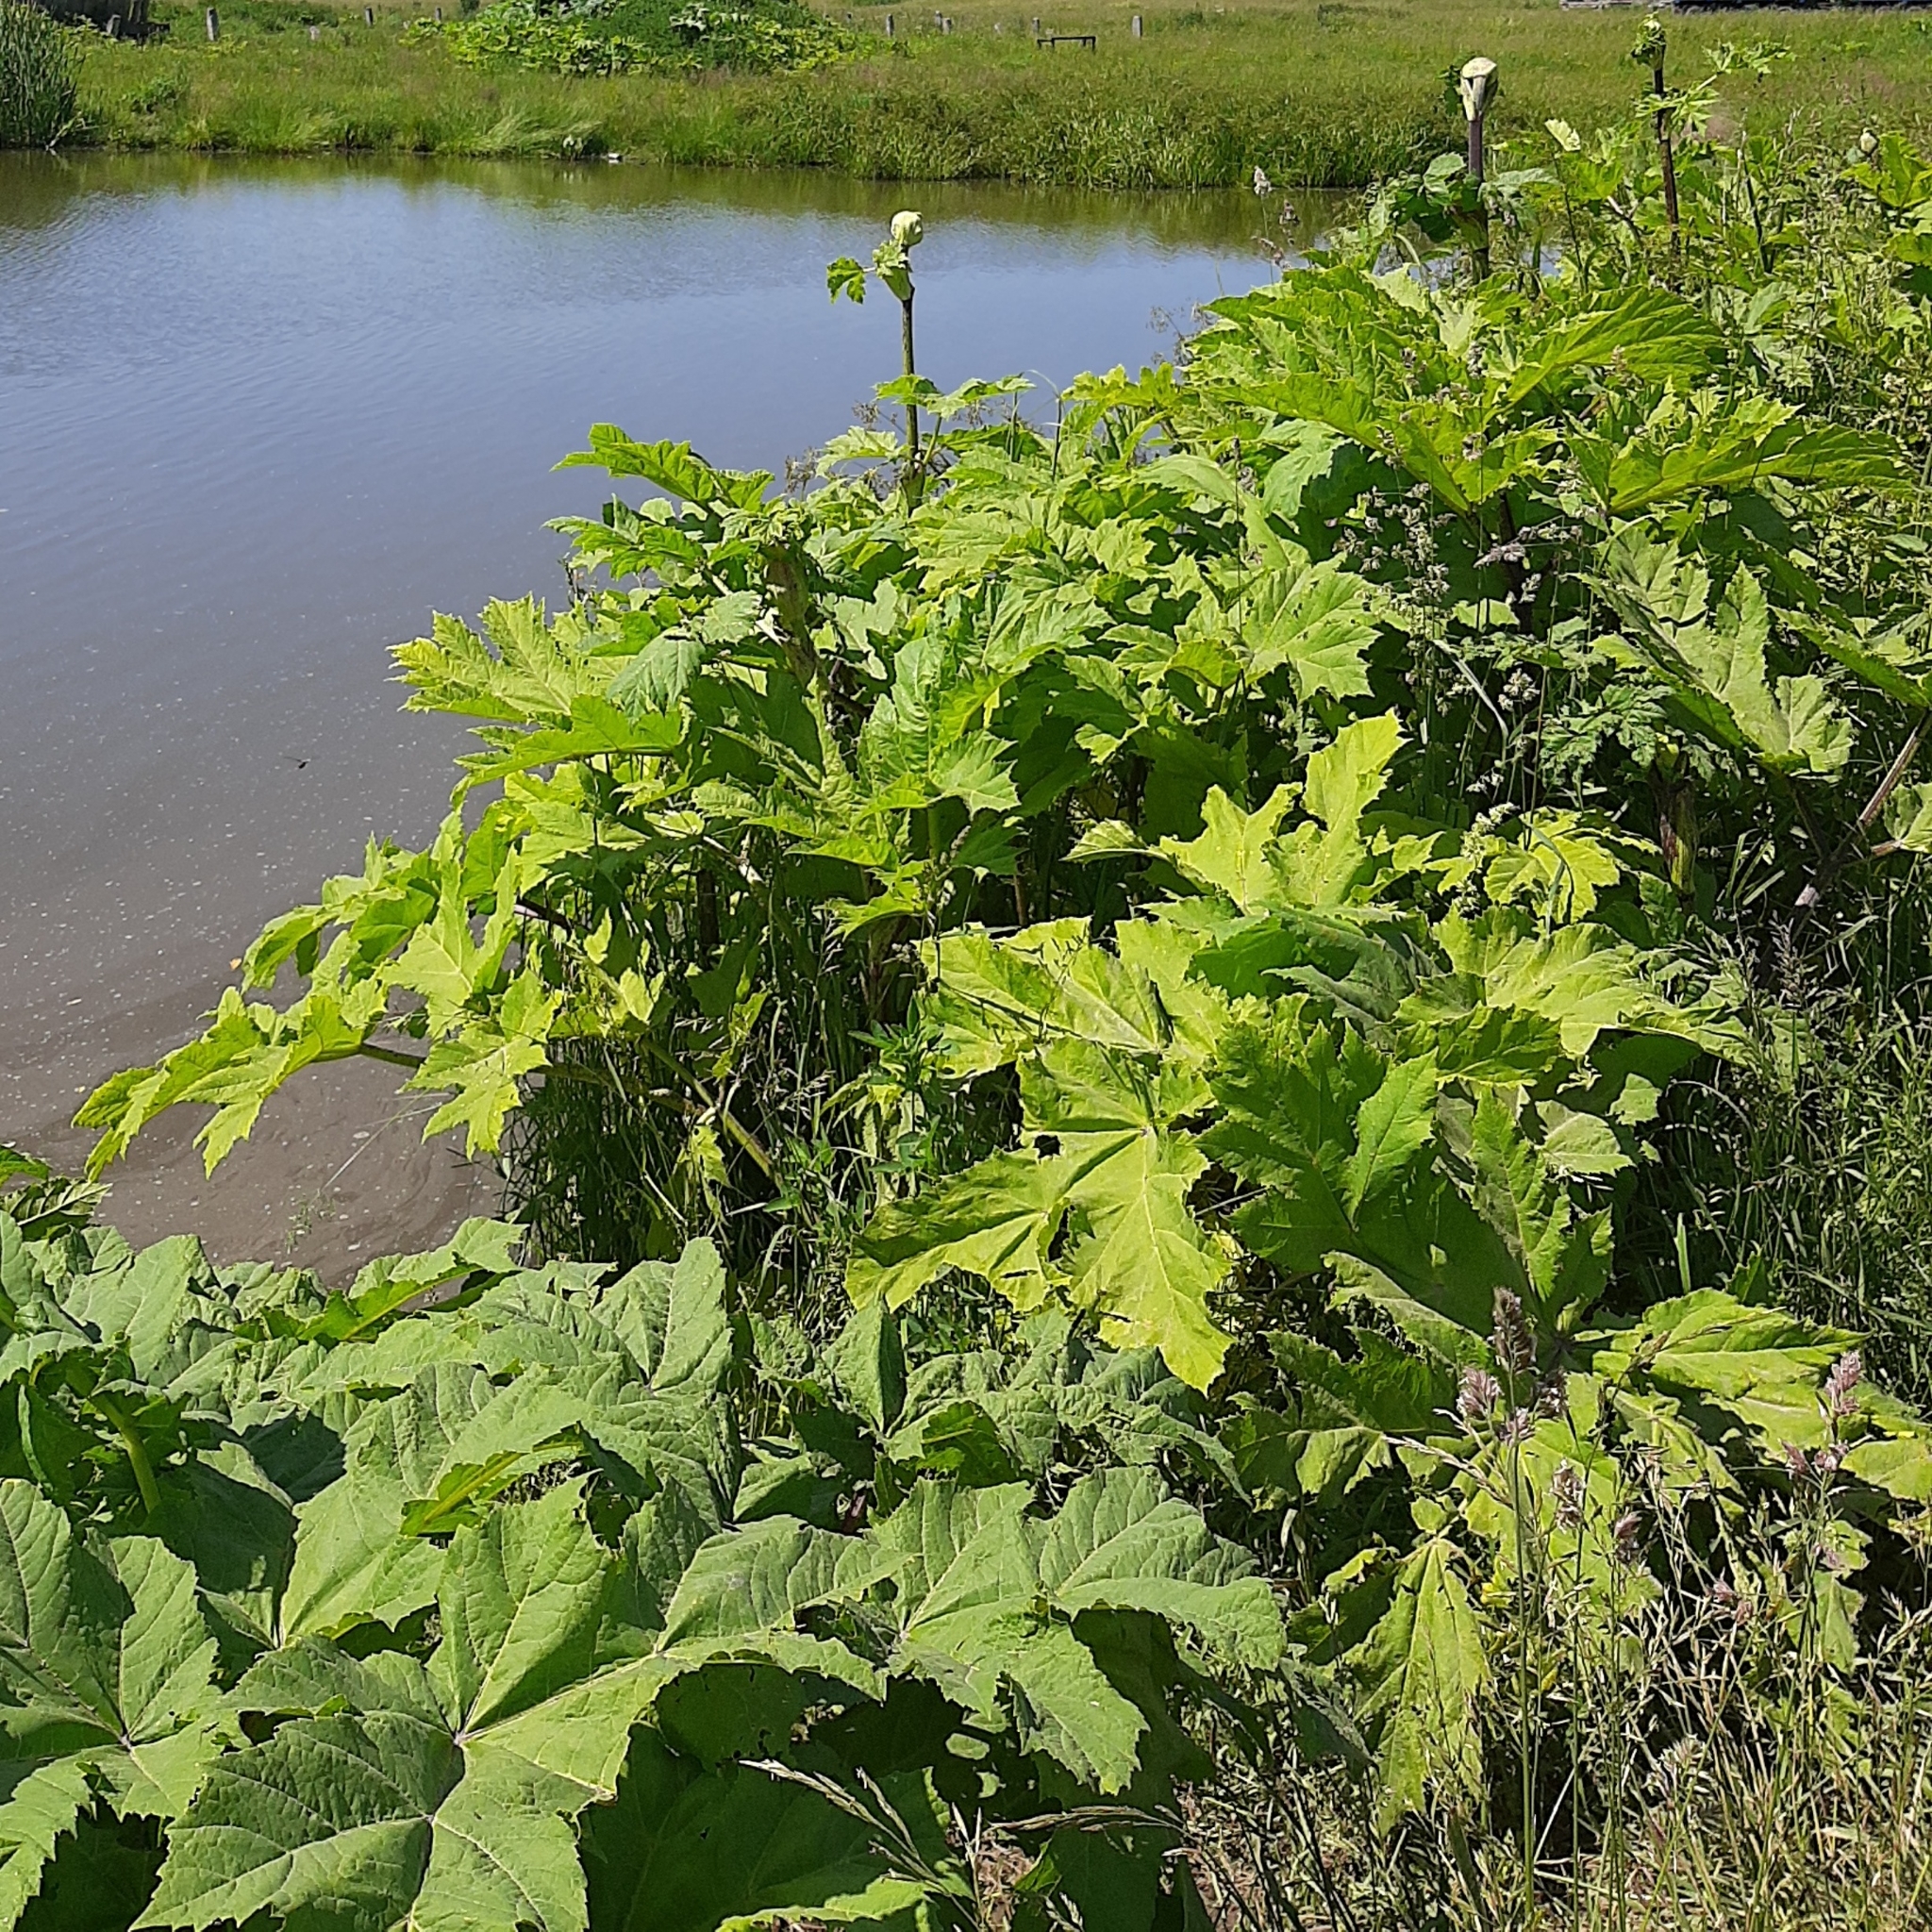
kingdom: Plantae
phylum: Tracheophyta
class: Magnoliopsida
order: Apiales
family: Apiaceae
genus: Heracleum
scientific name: Heracleum sosnowskyi
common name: Sosnowsky's hogweed
